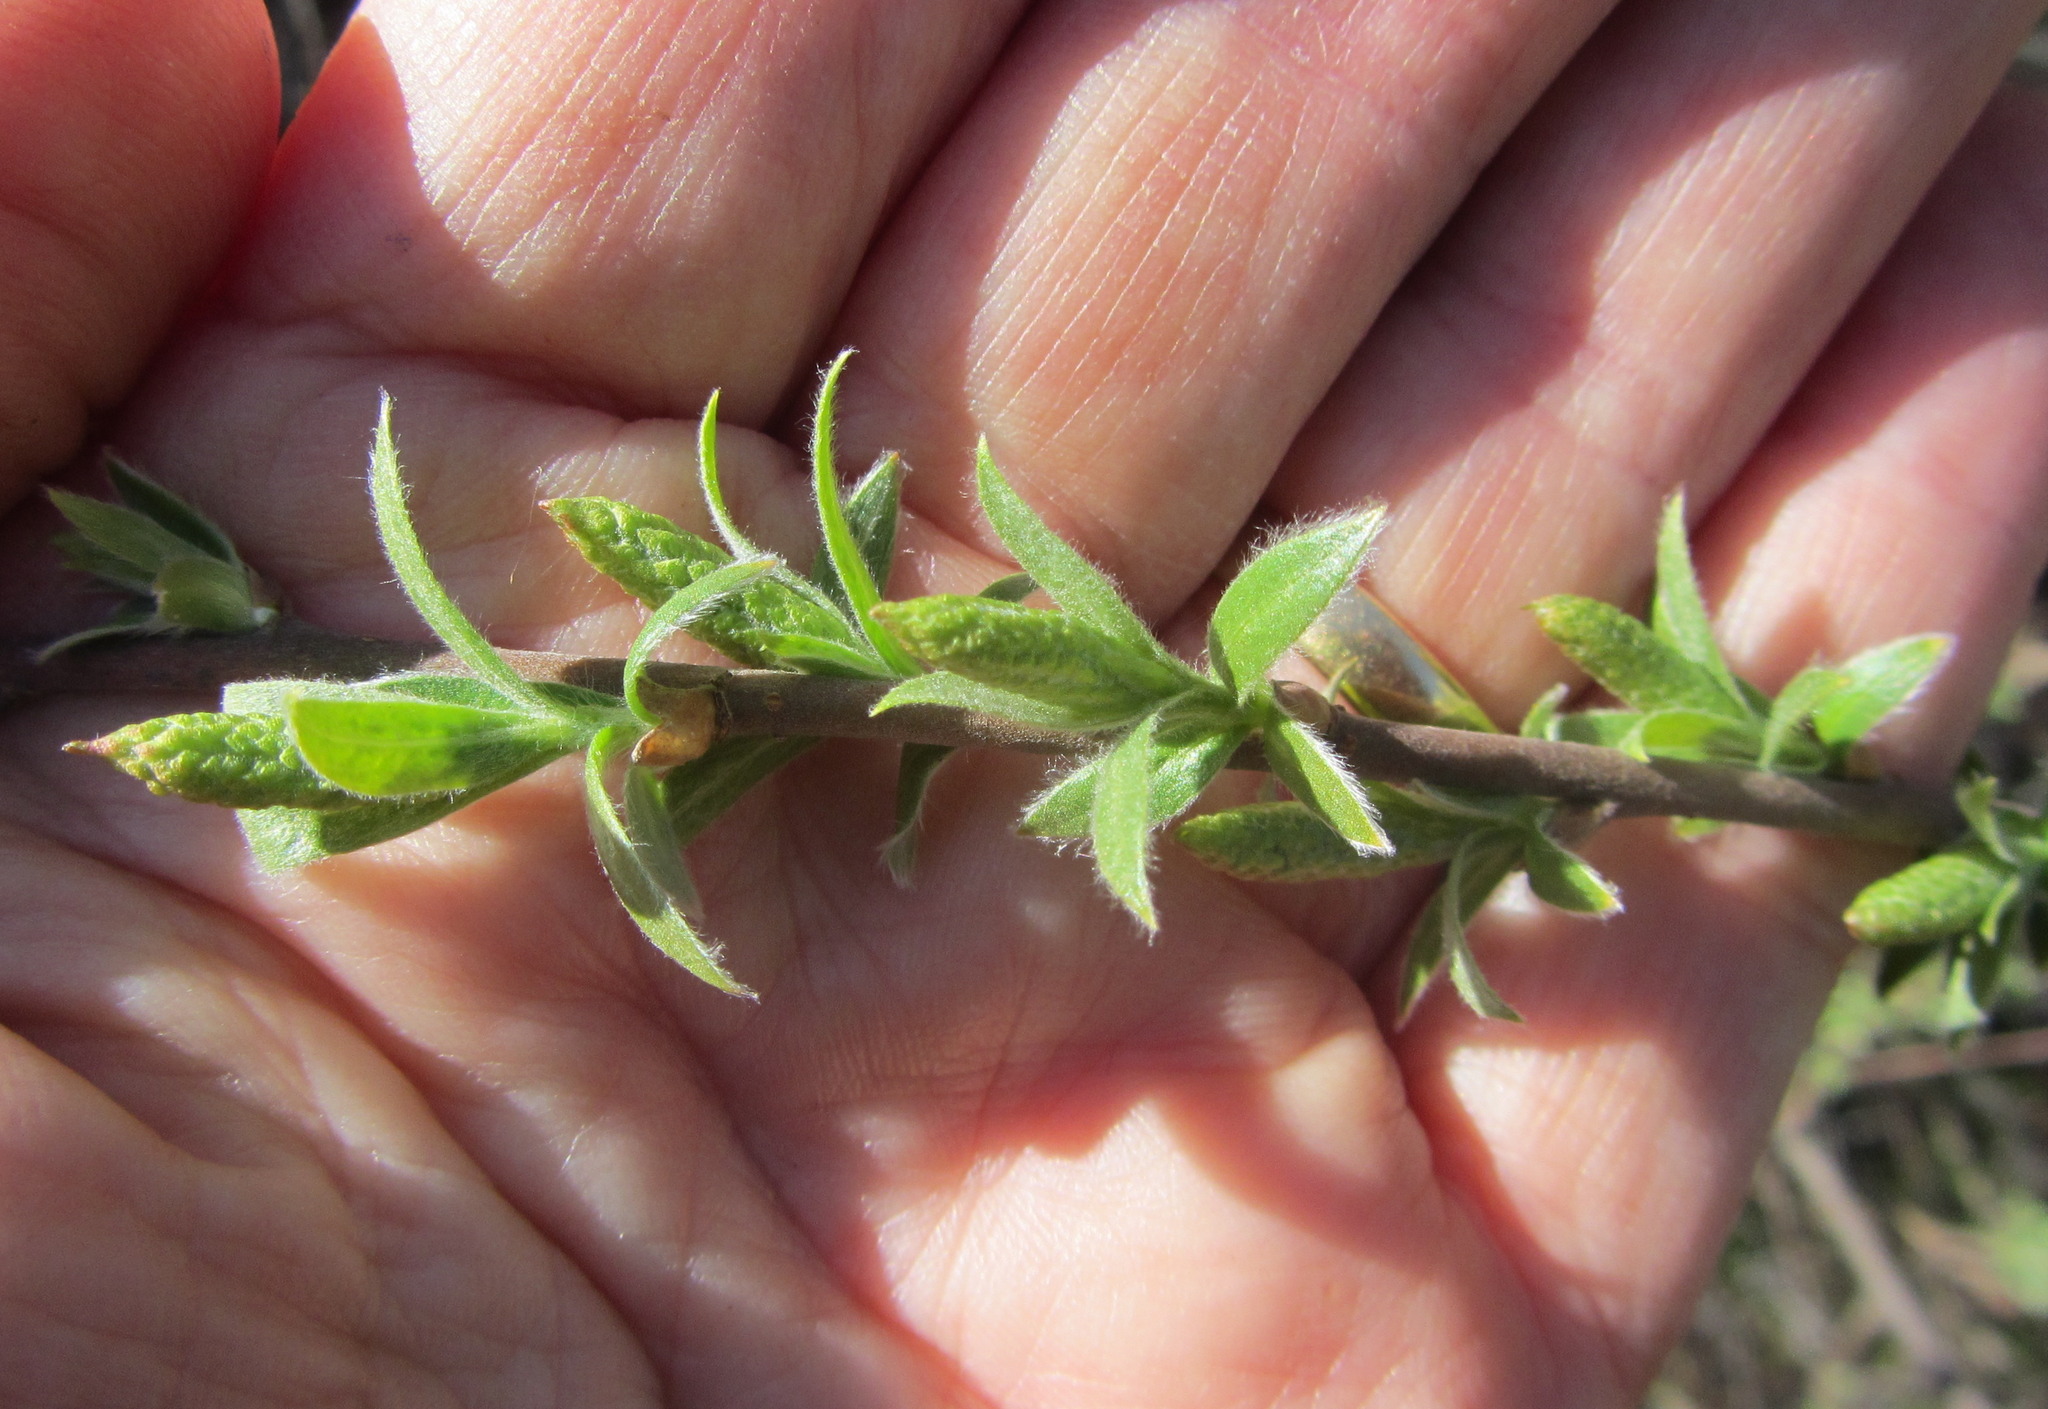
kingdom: Plantae
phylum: Tracheophyta
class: Magnoliopsida
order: Malpighiales
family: Salicaceae
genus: Salix
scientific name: Salix exigua
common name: Coyote willow
